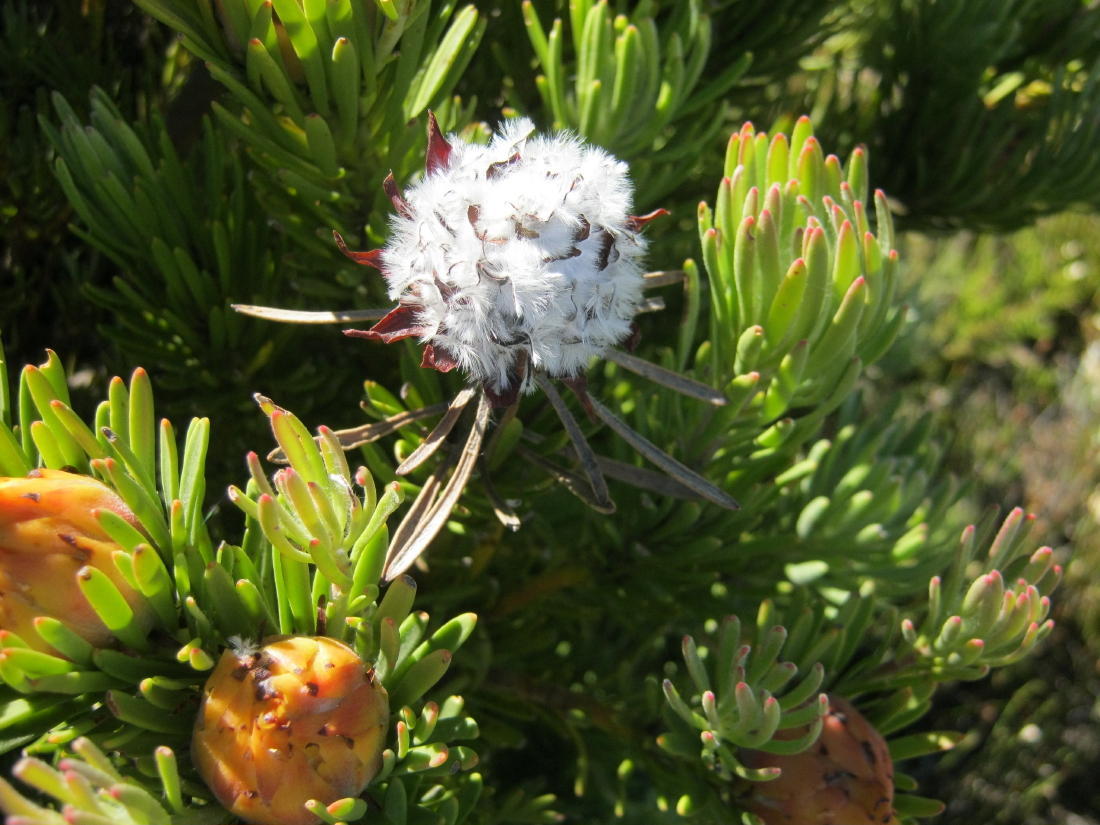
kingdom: Plantae
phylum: Tracheophyta
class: Magnoliopsida
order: Proteales
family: Proteaceae
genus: Leucadendron
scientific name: Leucadendron dregei
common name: Summit conebush
